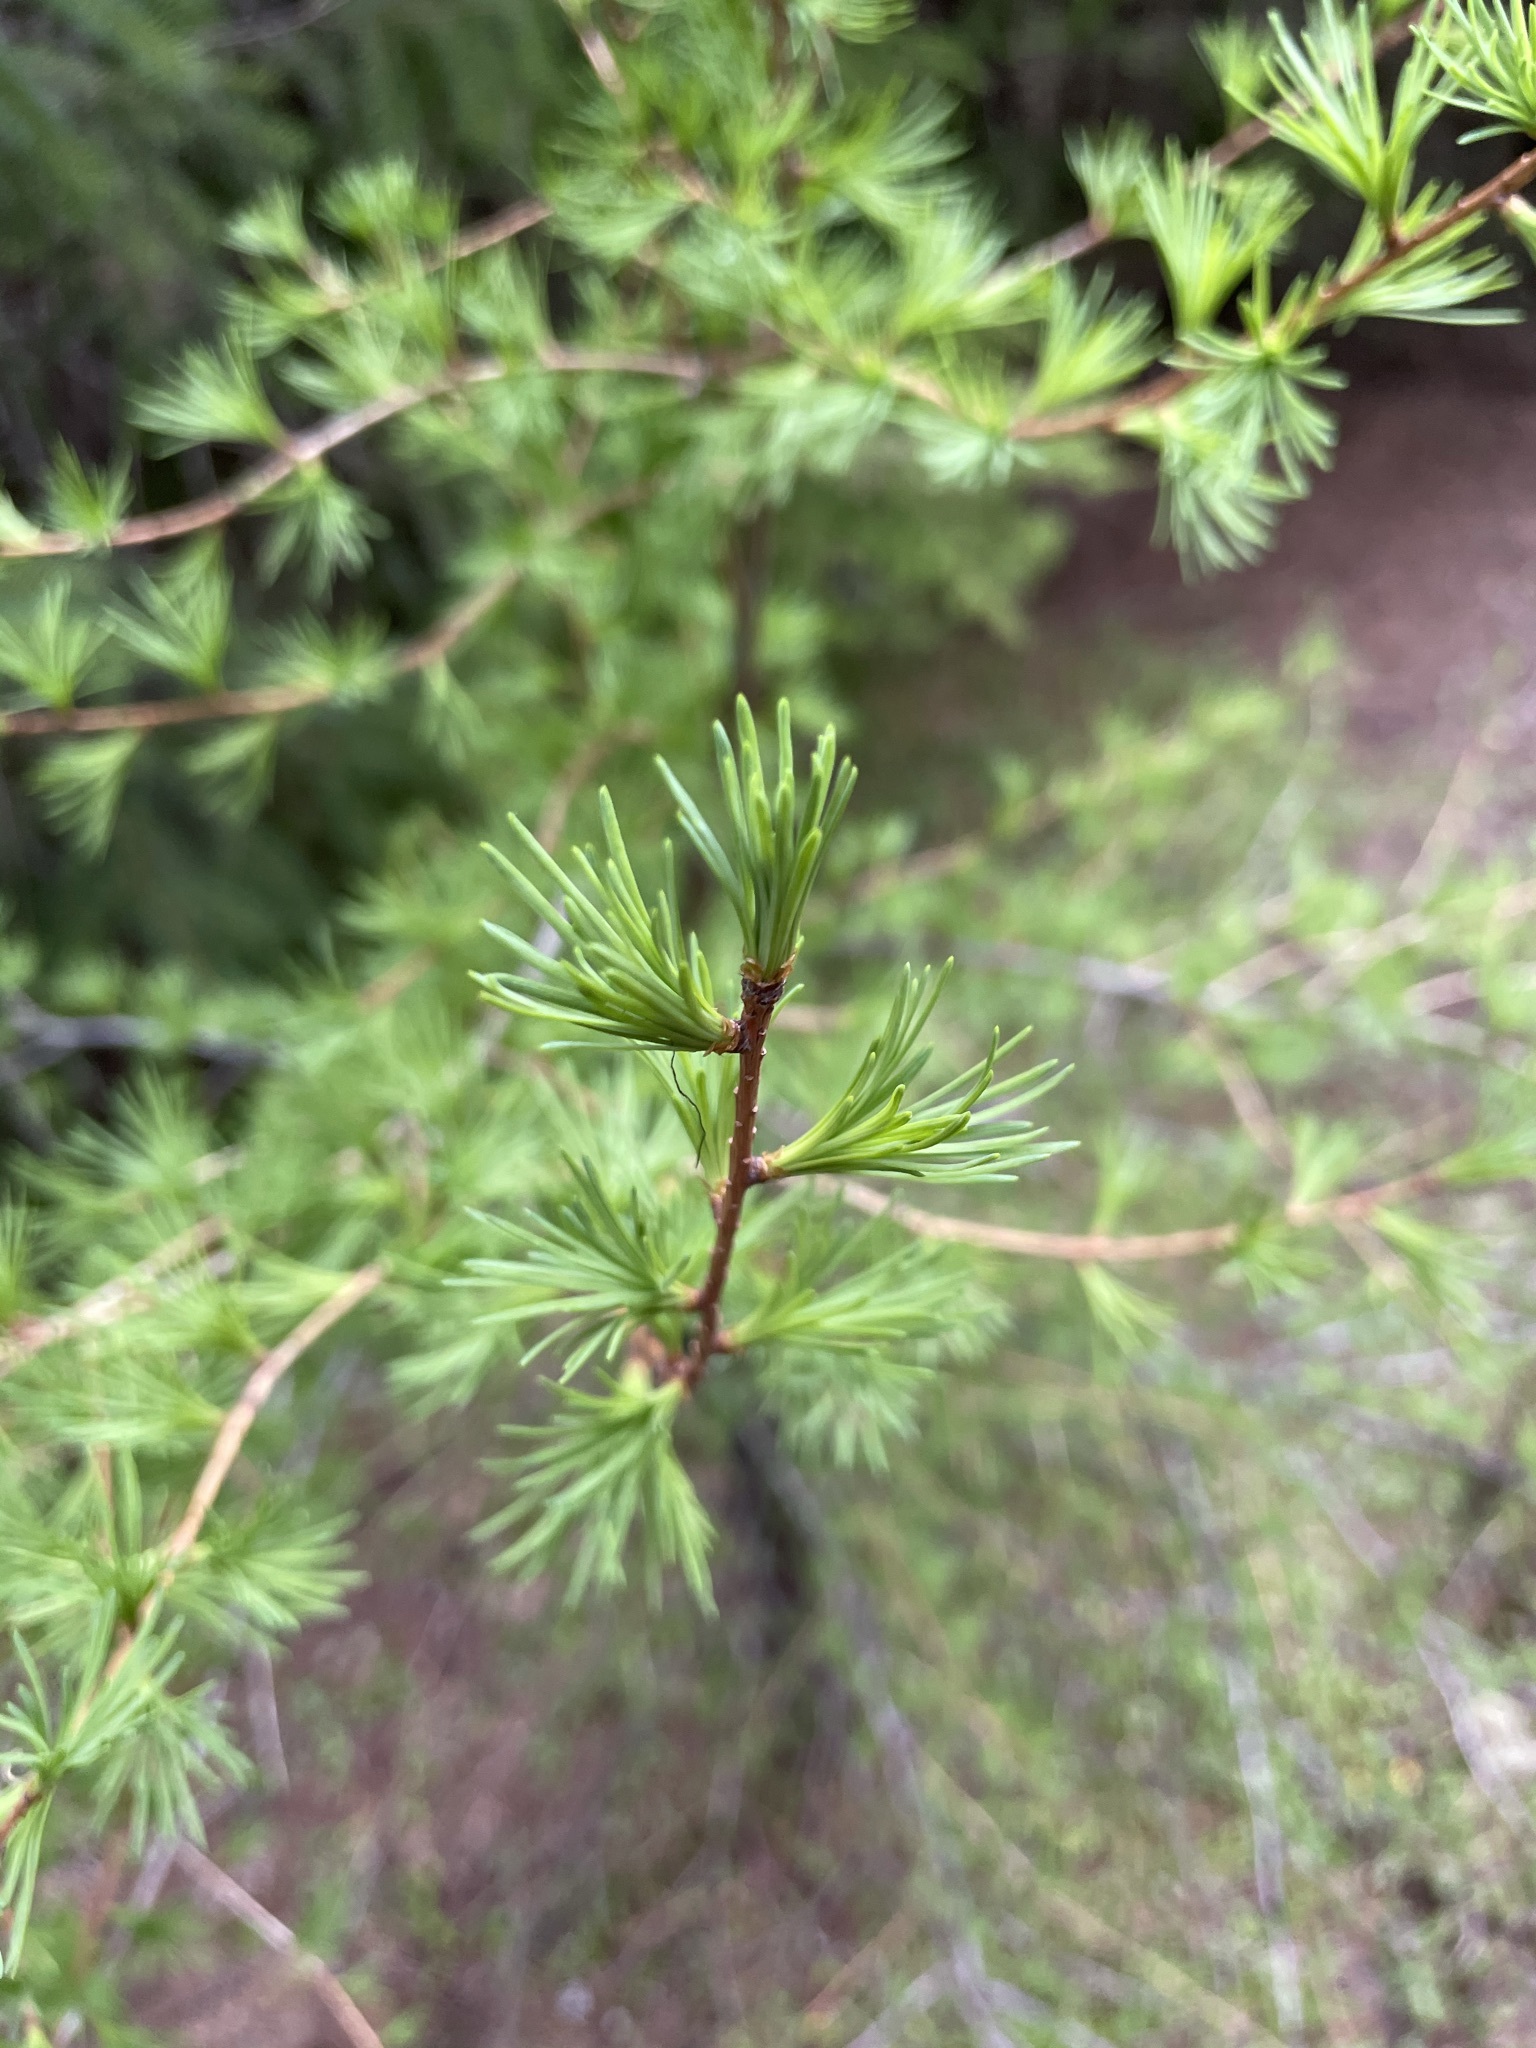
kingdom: Plantae
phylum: Tracheophyta
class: Pinopsida
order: Pinales
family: Pinaceae
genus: Larix
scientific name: Larix occidentalis
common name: Western larch
